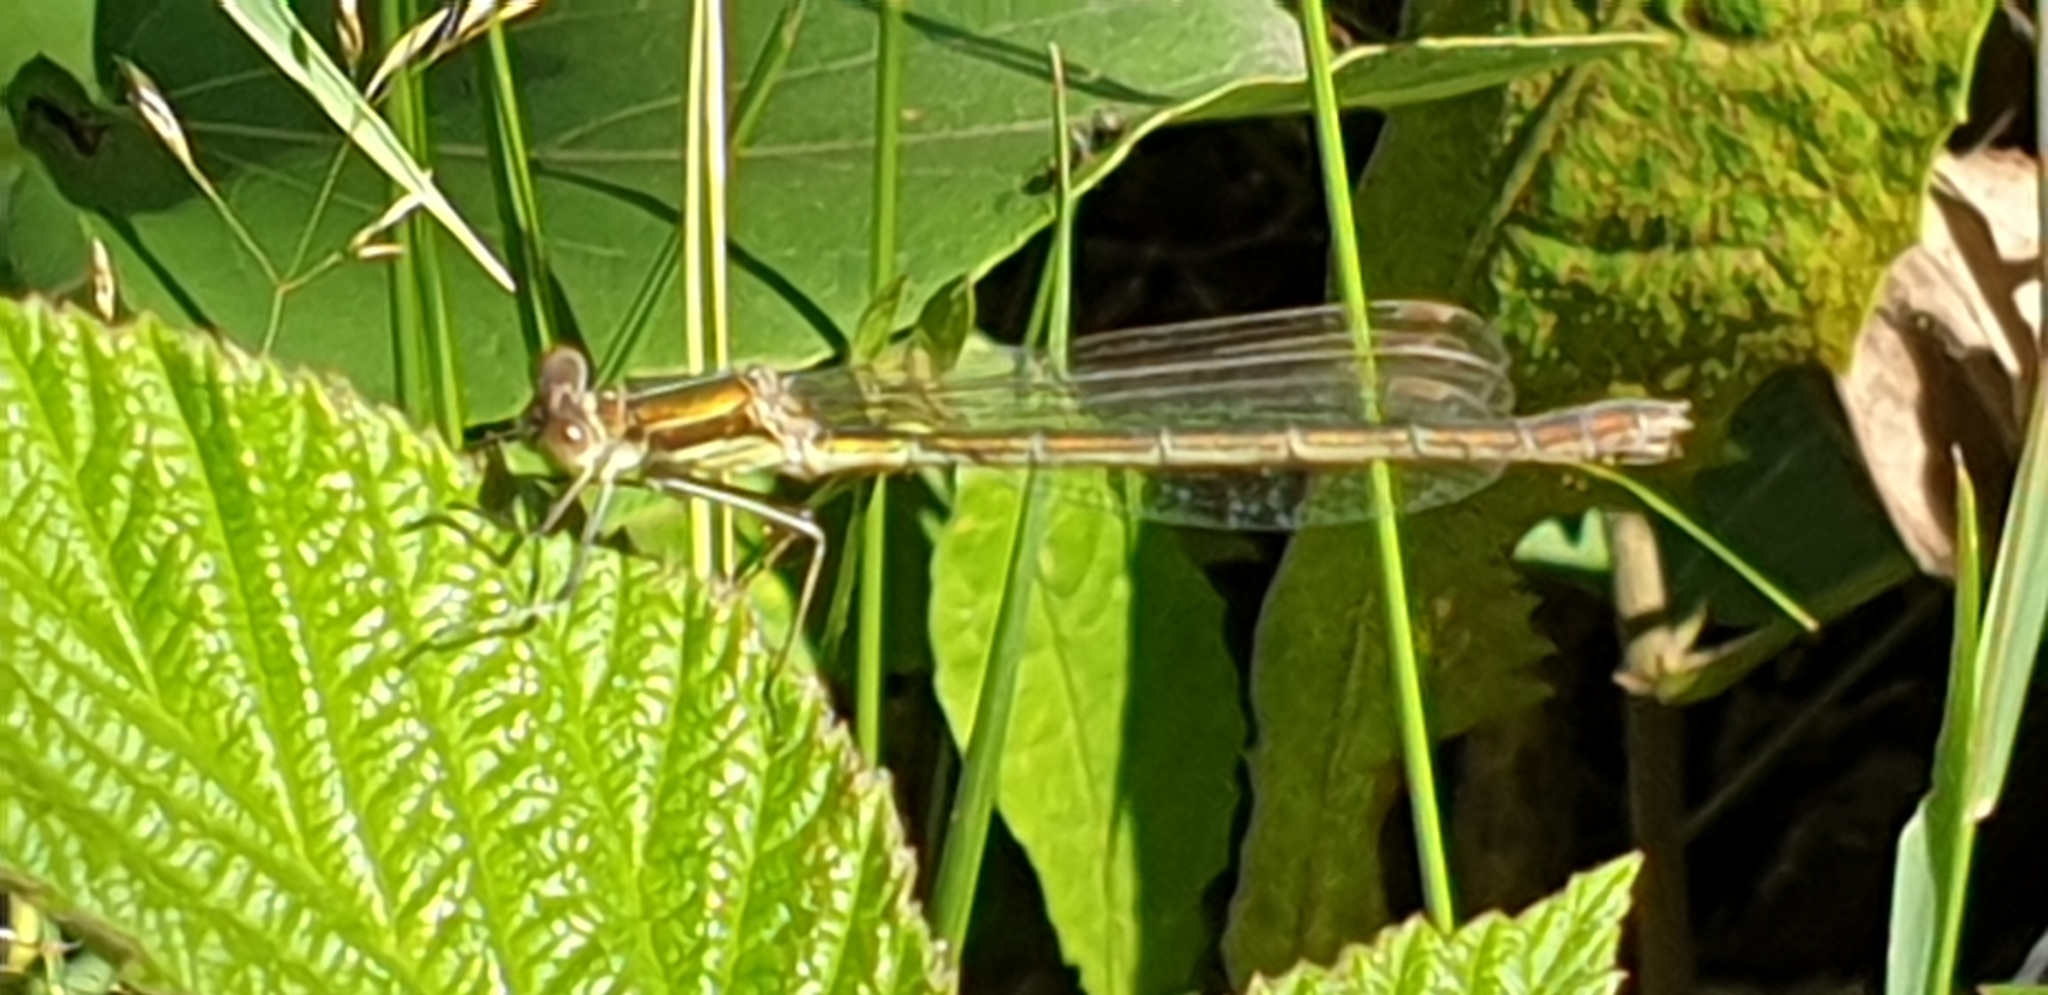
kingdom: Animalia
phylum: Arthropoda
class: Insecta
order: Odonata
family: Lestidae
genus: Lestes
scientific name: Lestes sponsa
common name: Common spreadwing
